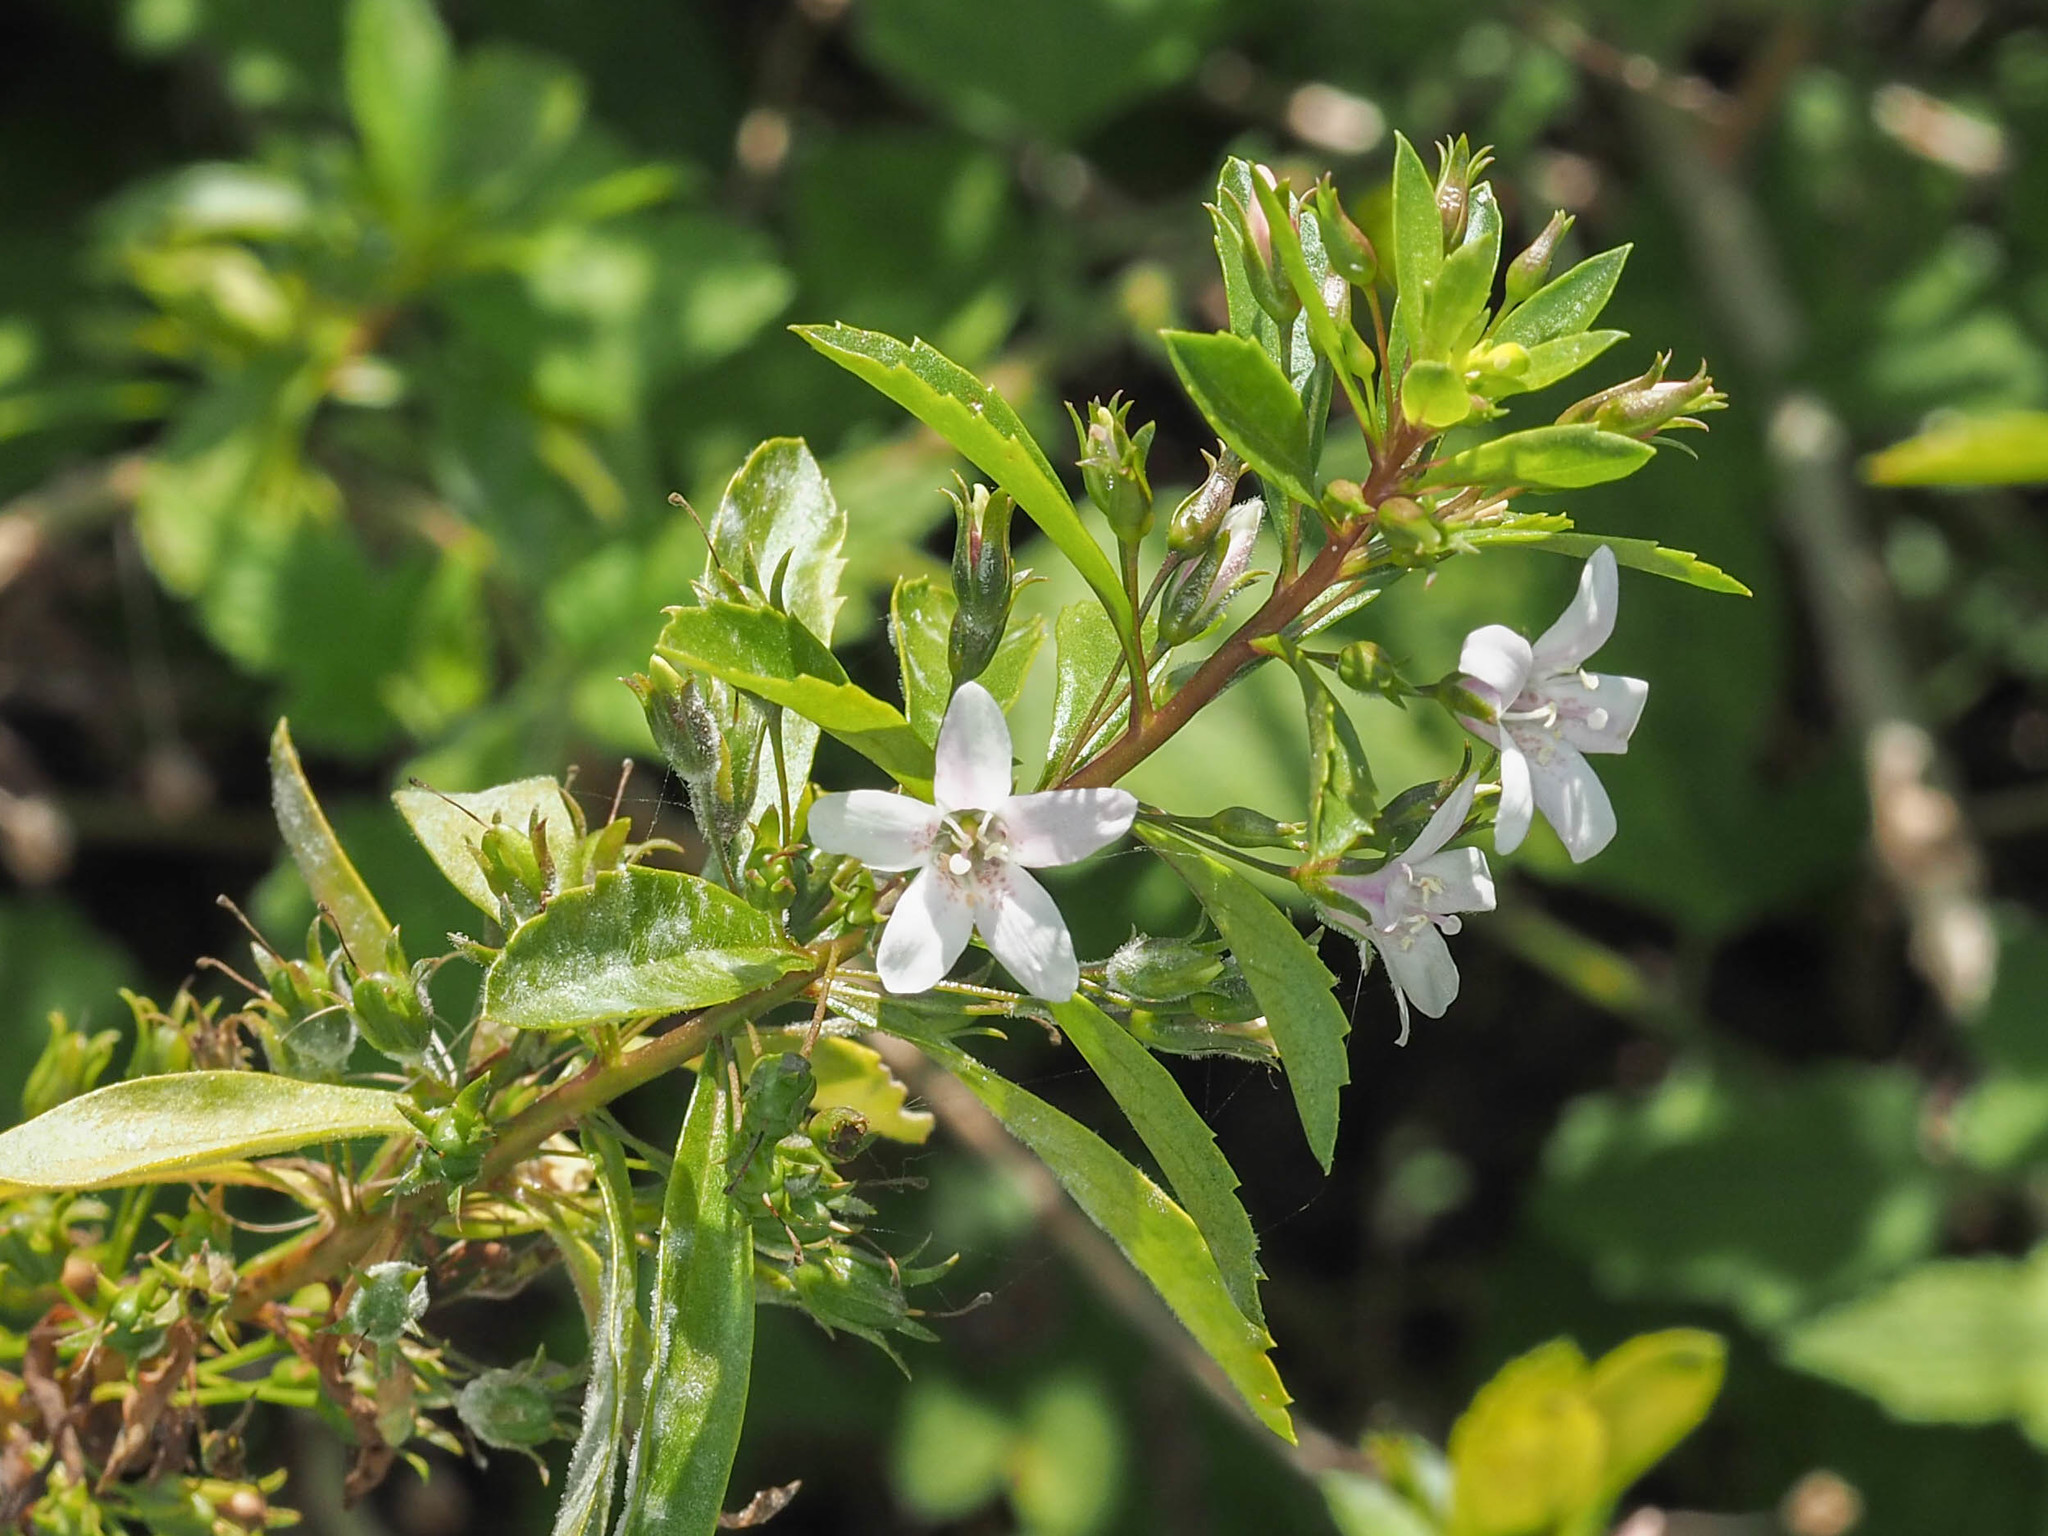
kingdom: Plantae
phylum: Tracheophyta
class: Magnoliopsida
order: Lamiales
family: Scrophulariaceae
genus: Capraria
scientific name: Capraria biflora
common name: Goatweed
